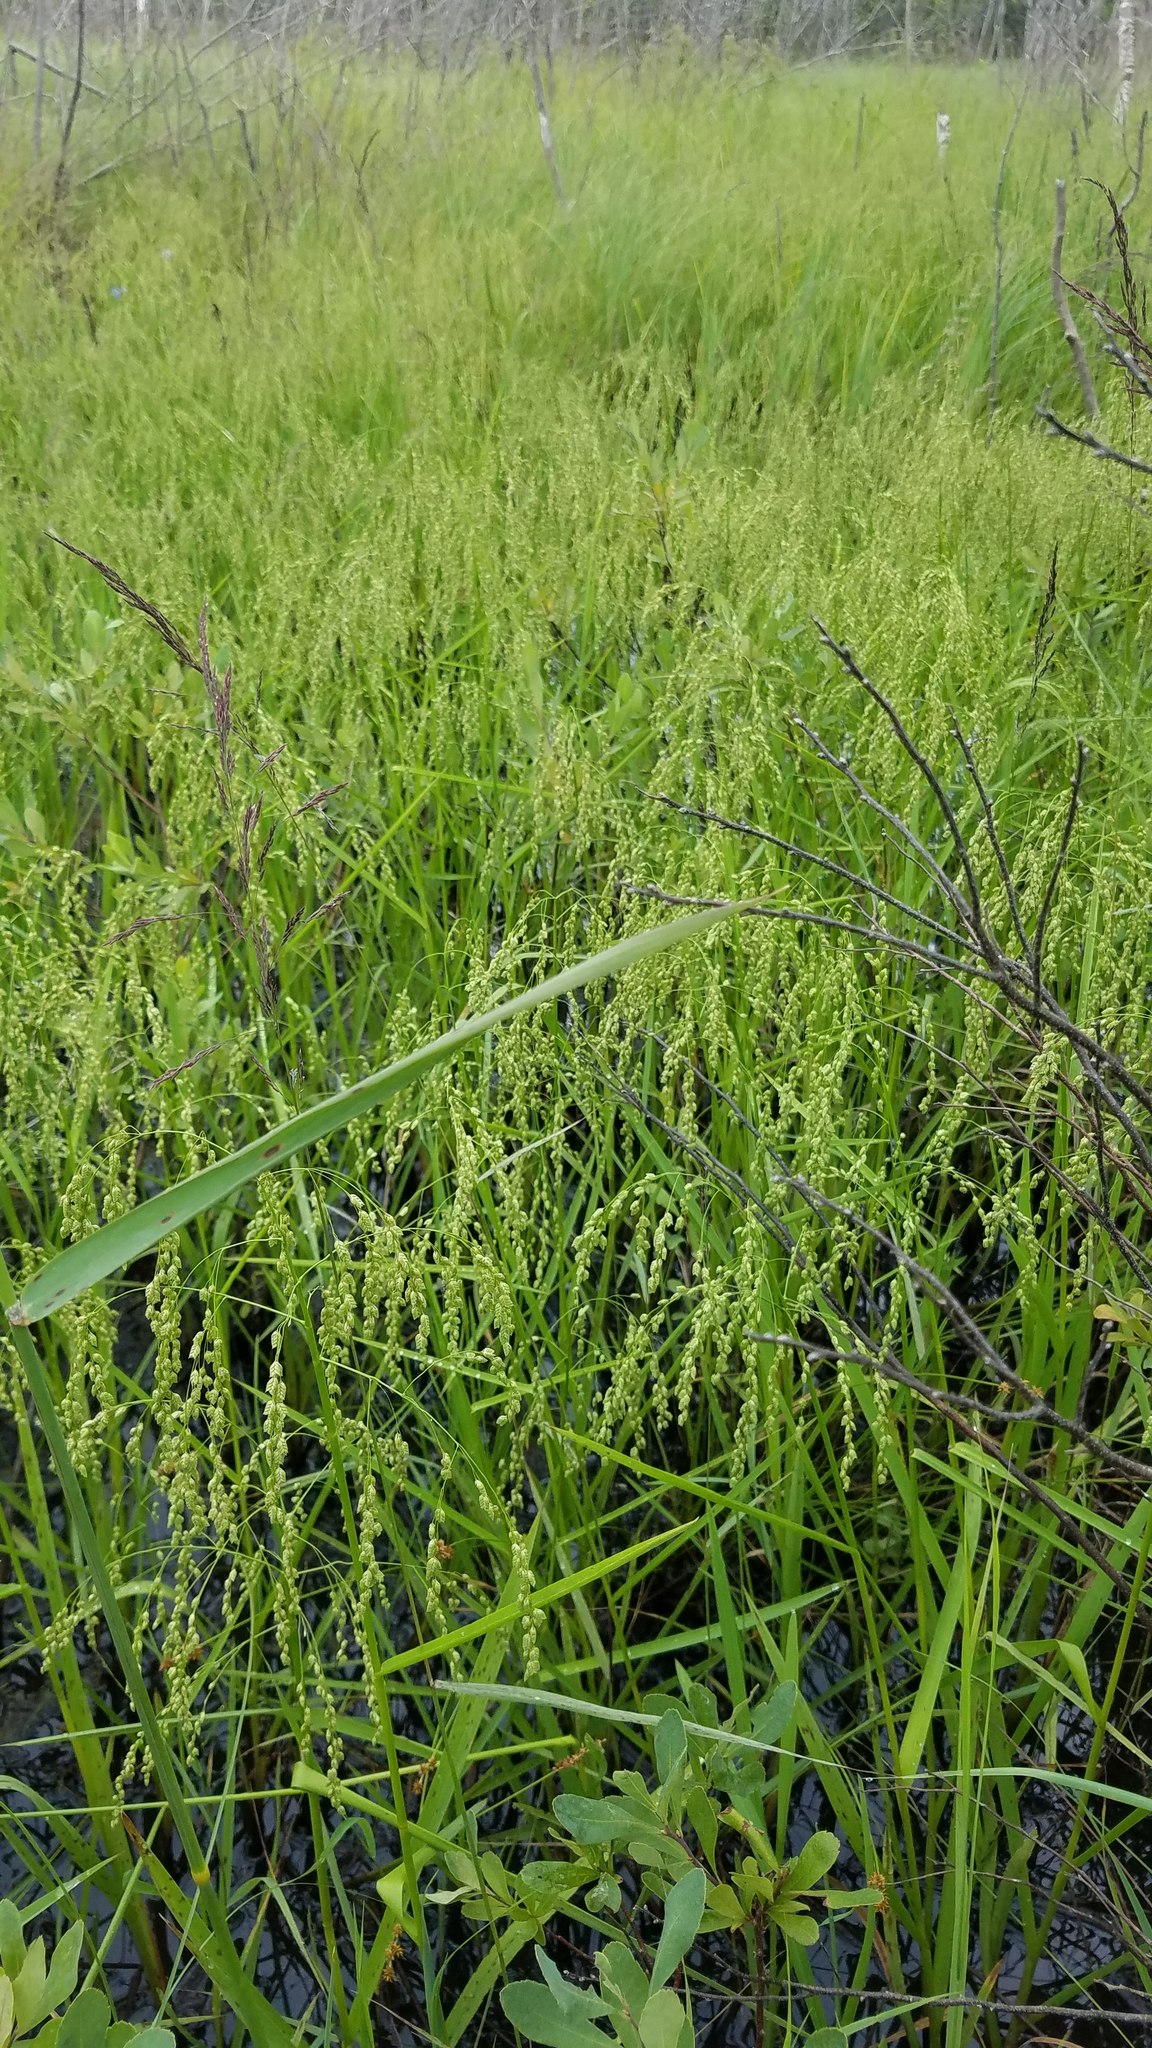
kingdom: Plantae
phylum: Tracheophyta
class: Magnoliopsida
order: Lamiales
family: Lamiaceae
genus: Stachys
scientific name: Stachys palustris
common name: Marsh woundwort
